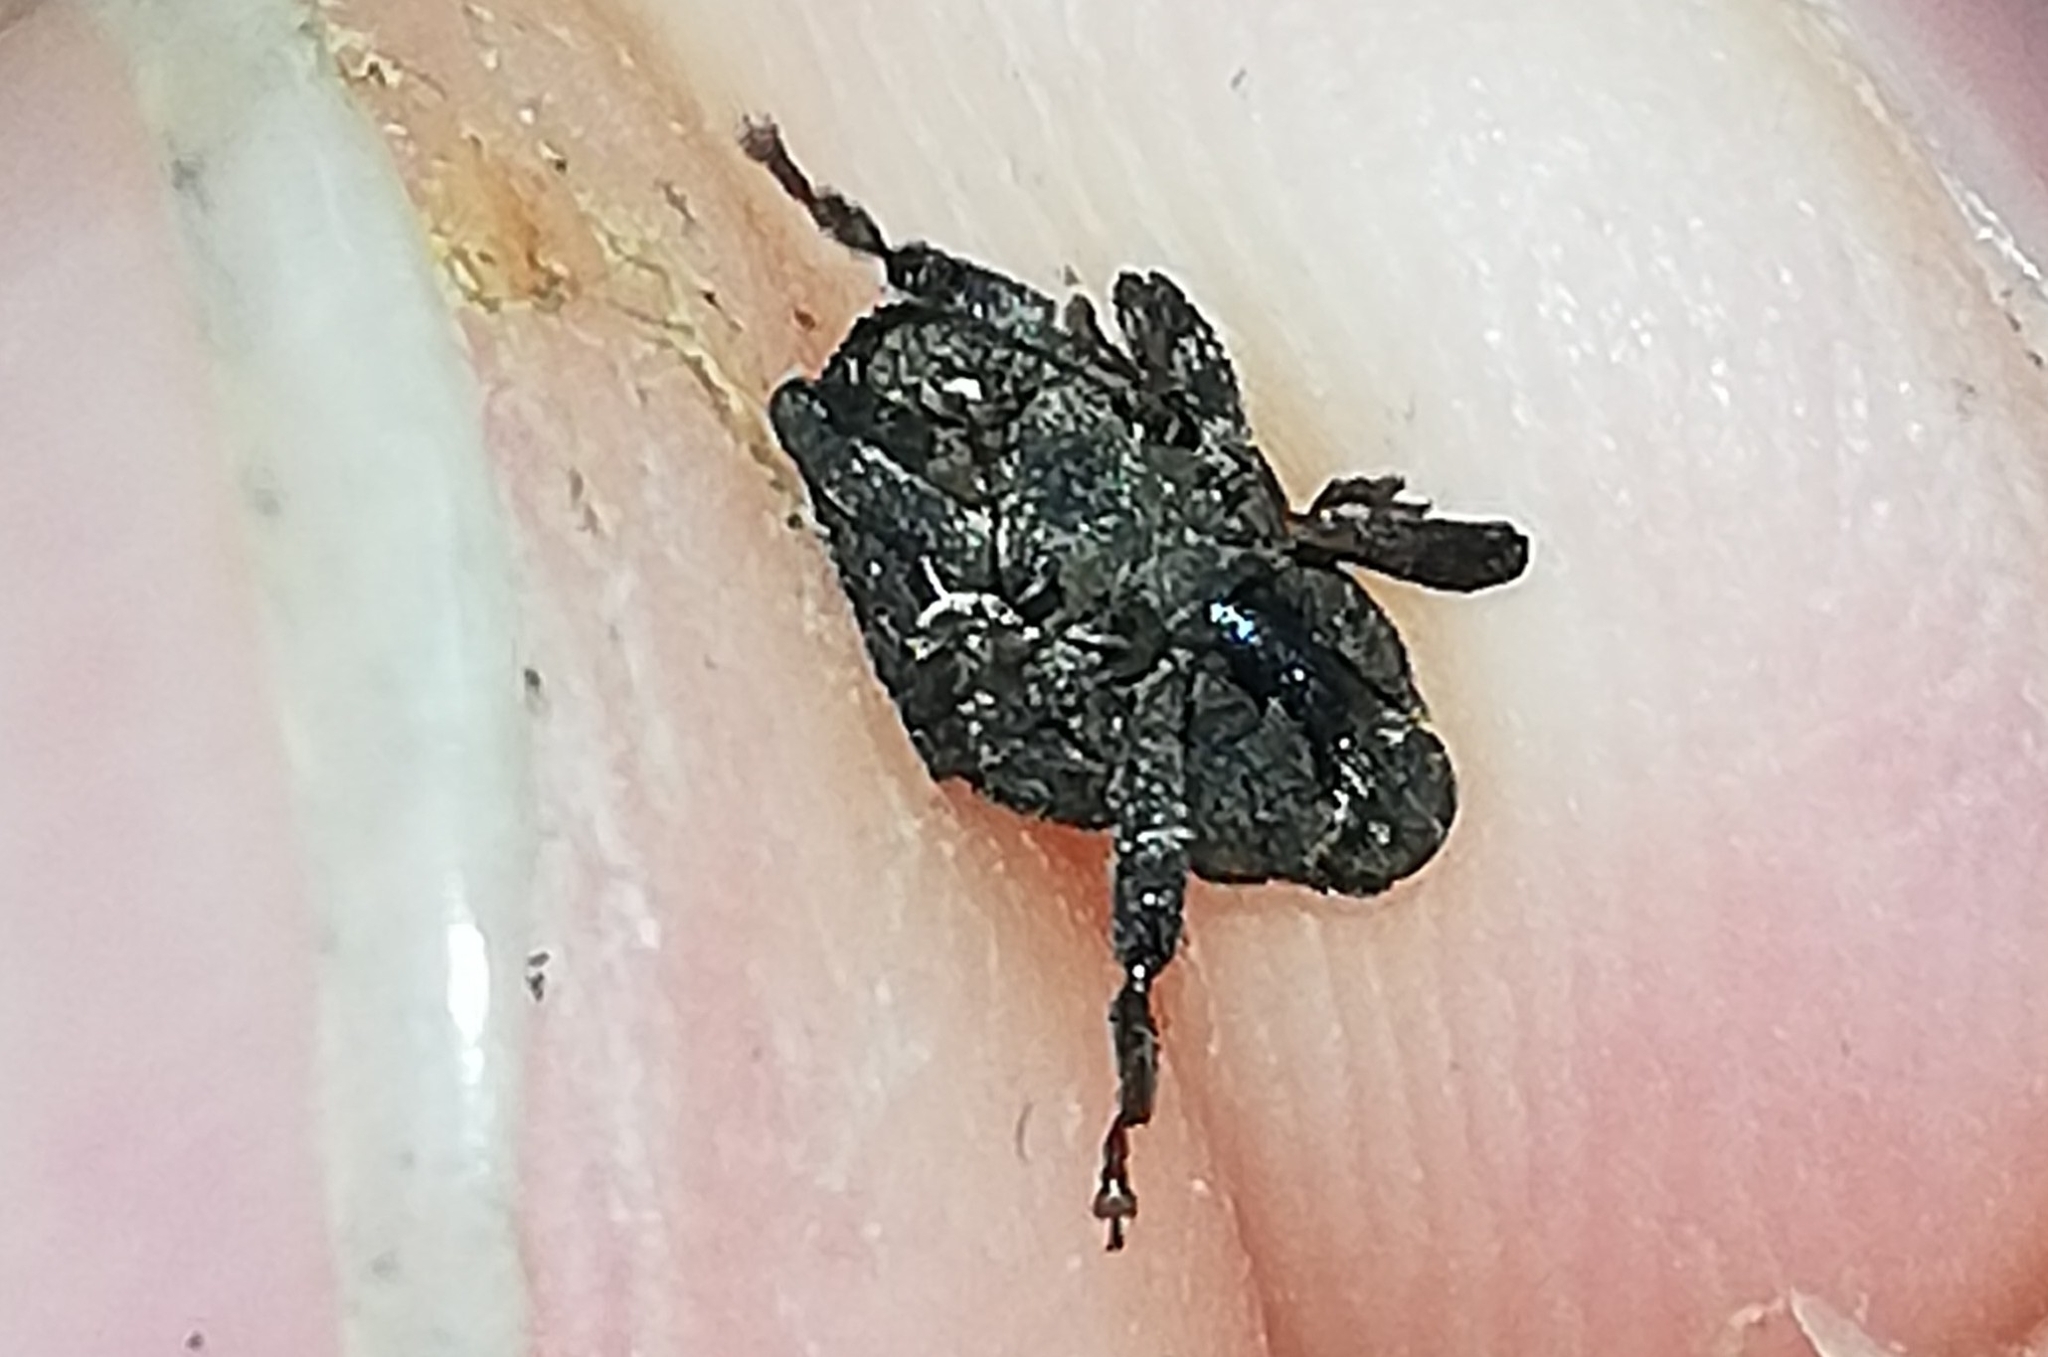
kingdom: Animalia
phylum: Arthropoda
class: Insecta
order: Coleoptera
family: Curculionidae
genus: Echinodera
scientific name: Echinodera hypocrita
